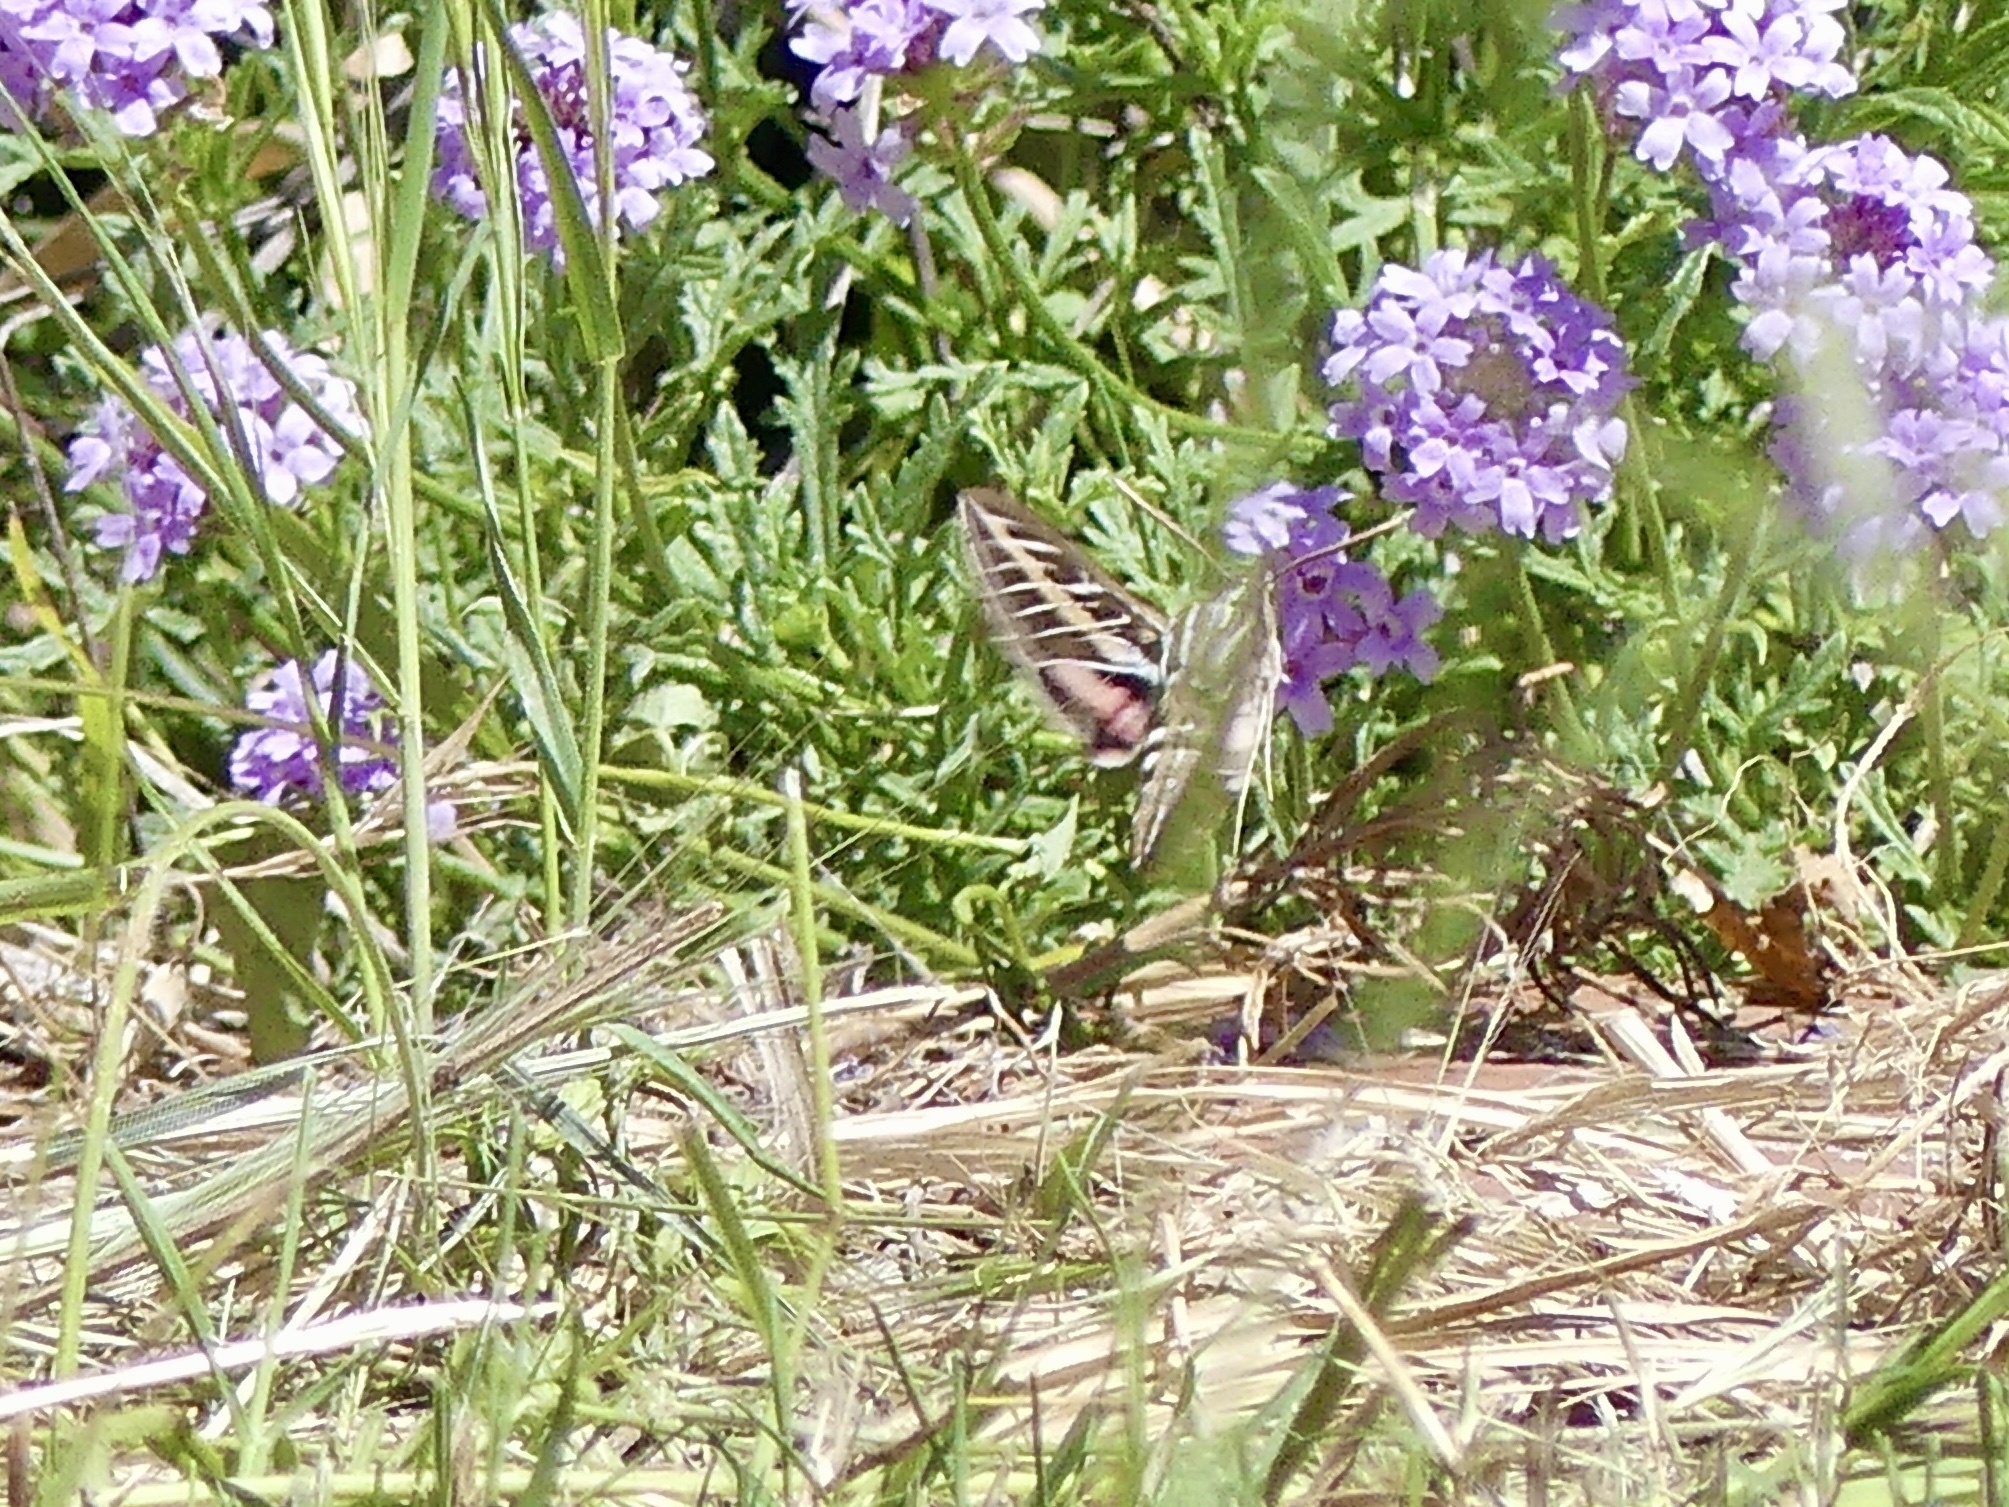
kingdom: Animalia
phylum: Arthropoda
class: Insecta
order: Lepidoptera
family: Sphingidae
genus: Hyles
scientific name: Hyles lineata
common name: White-lined sphinx
